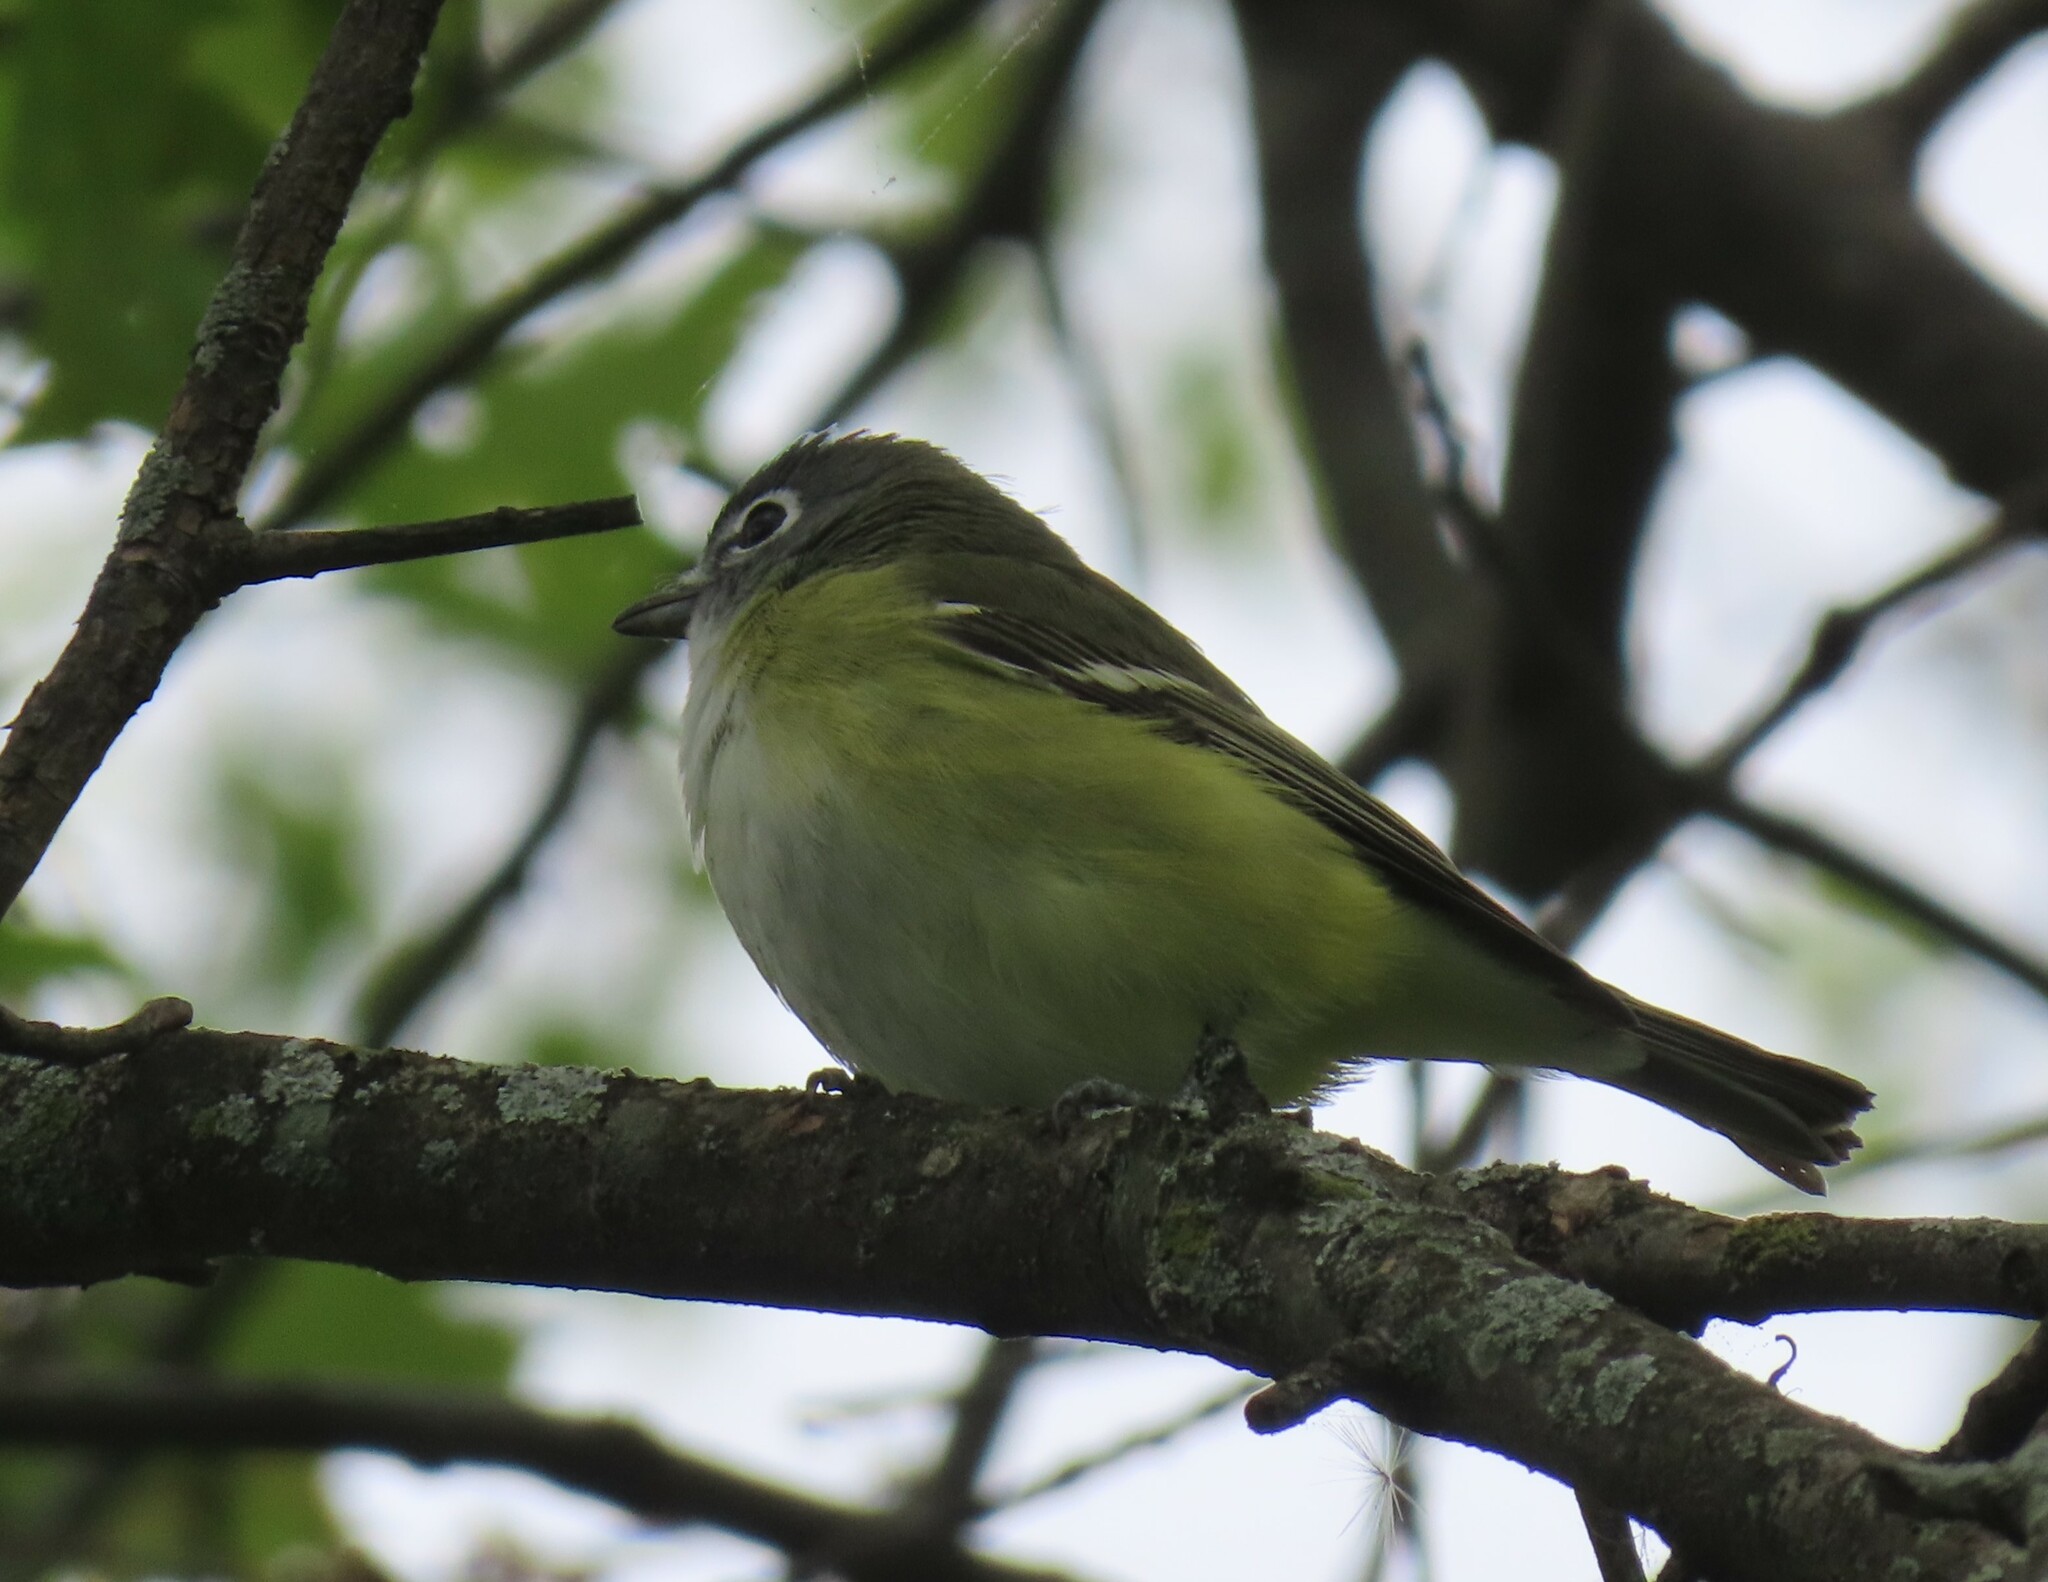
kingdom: Animalia
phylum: Chordata
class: Aves
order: Passeriformes
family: Vireonidae
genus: Vireo
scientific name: Vireo solitarius
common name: Blue-headed vireo
